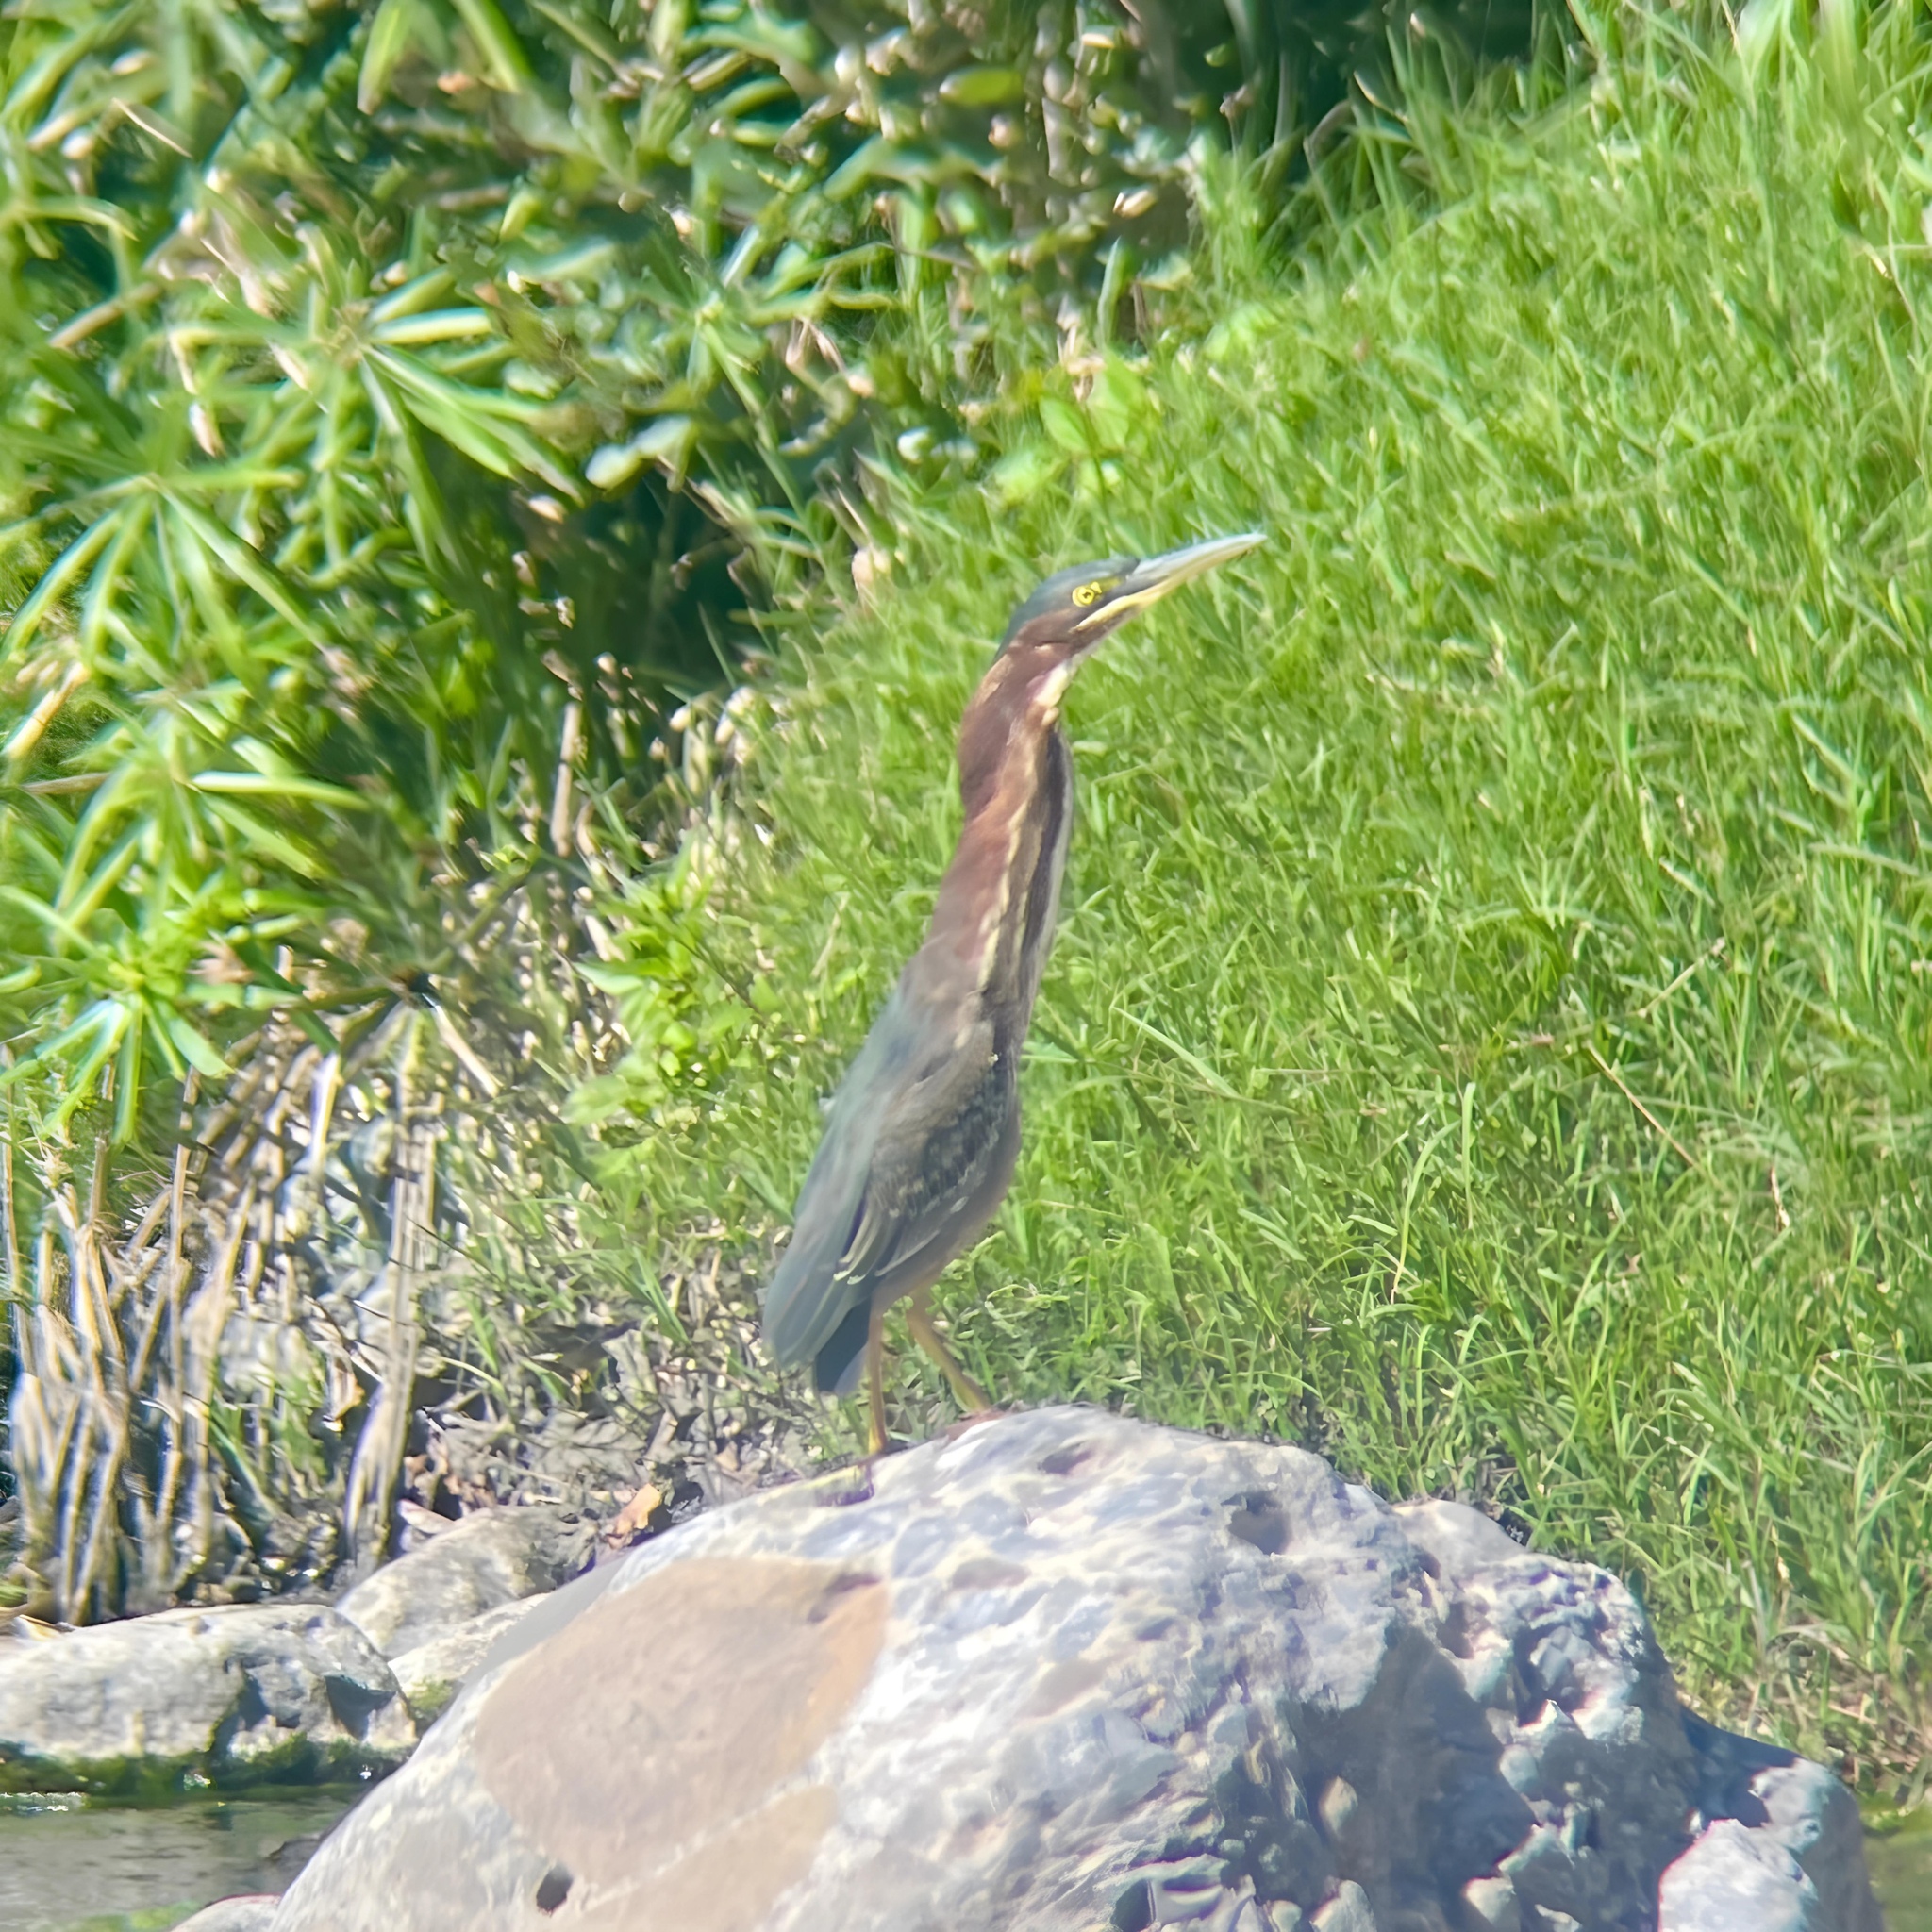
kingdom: Animalia
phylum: Chordata
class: Aves
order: Pelecaniformes
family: Ardeidae
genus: Butorides
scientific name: Butorides virescens
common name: Green heron
